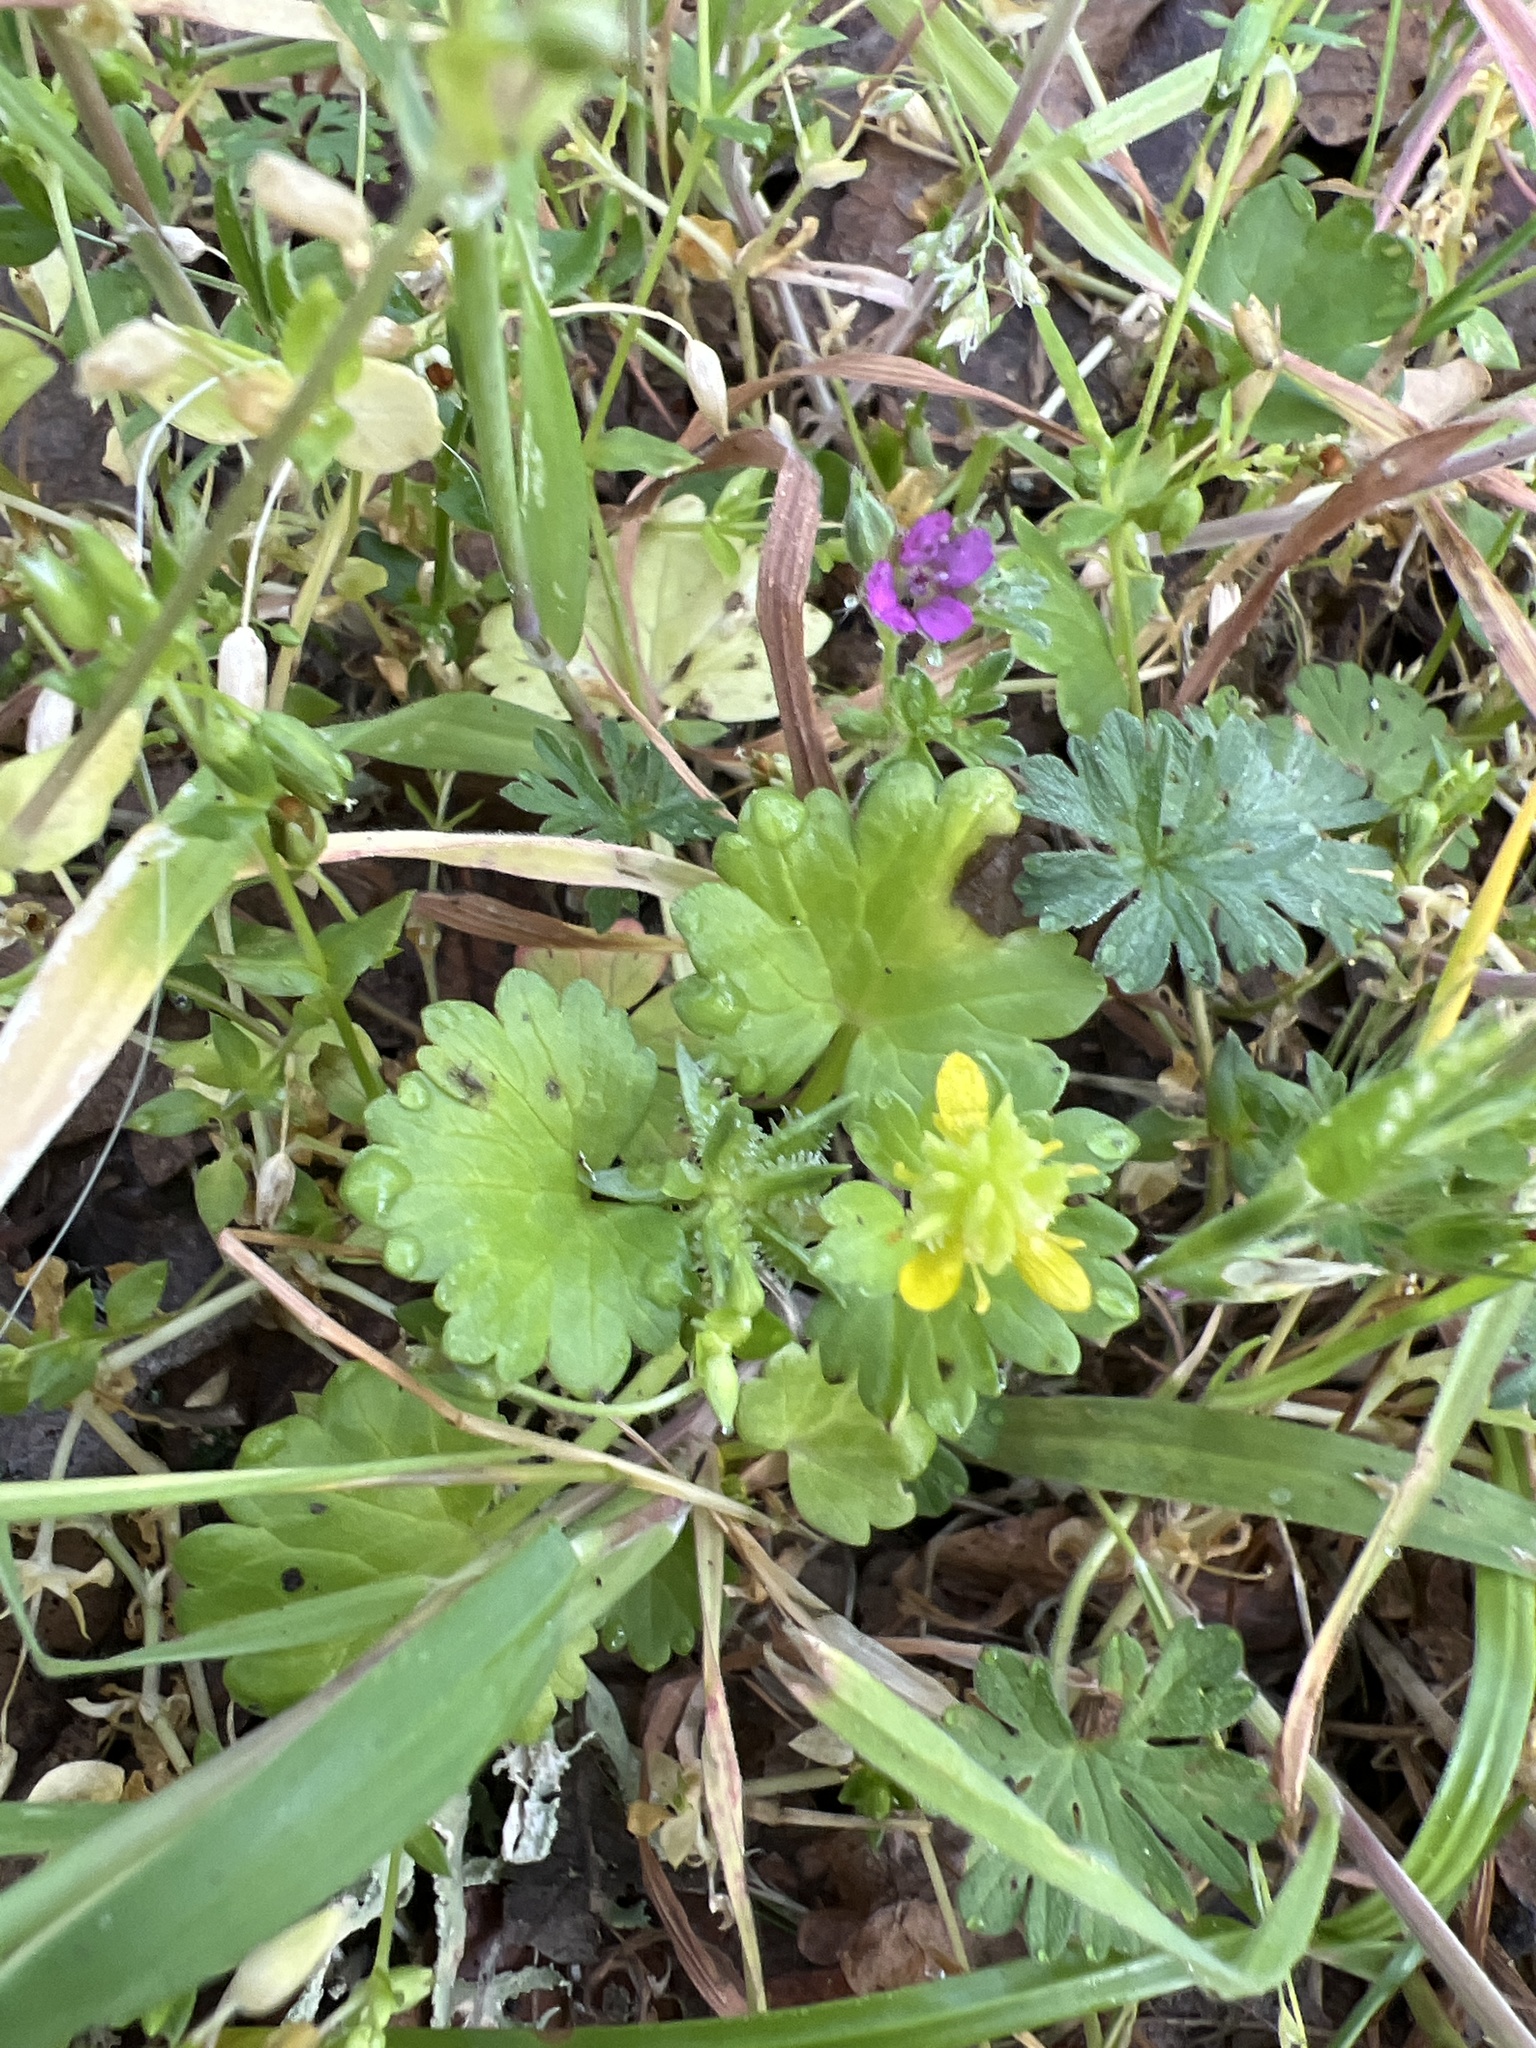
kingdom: Plantae
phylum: Tracheophyta
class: Magnoliopsida
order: Ranunculales
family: Ranunculaceae
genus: Ranunculus
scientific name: Ranunculus muricatus
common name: Rough-fruited buttercup
